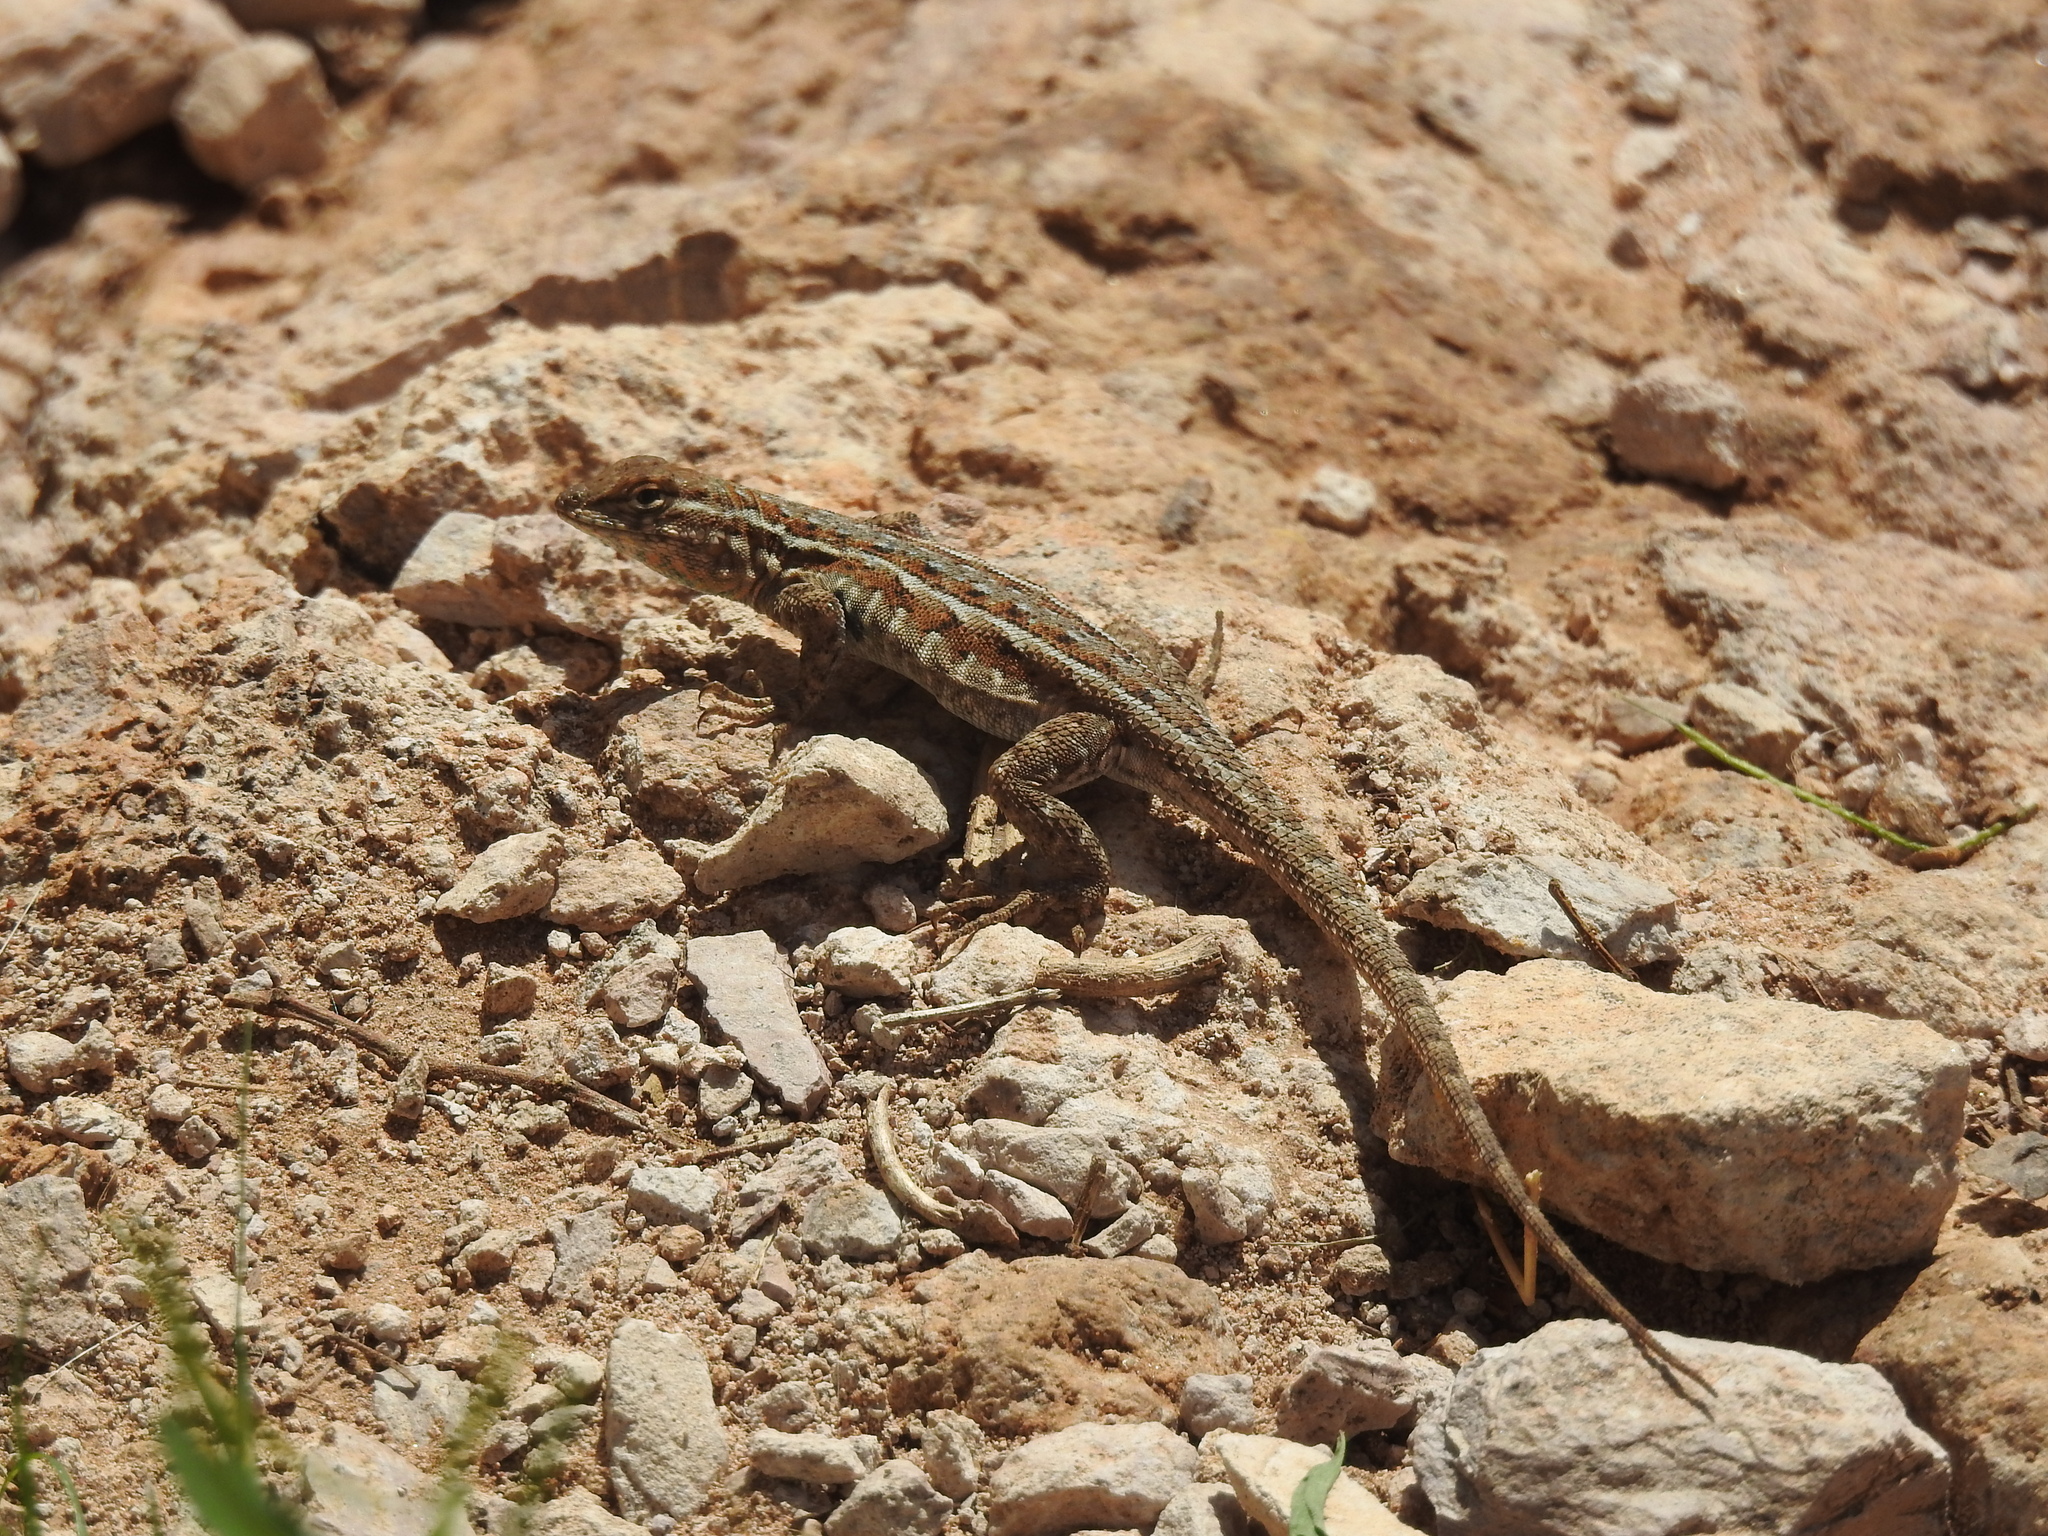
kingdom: Animalia
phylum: Chordata
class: Squamata
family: Phrynosomatidae
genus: Uta
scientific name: Uta stansburiana
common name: Side-blotched lizard
